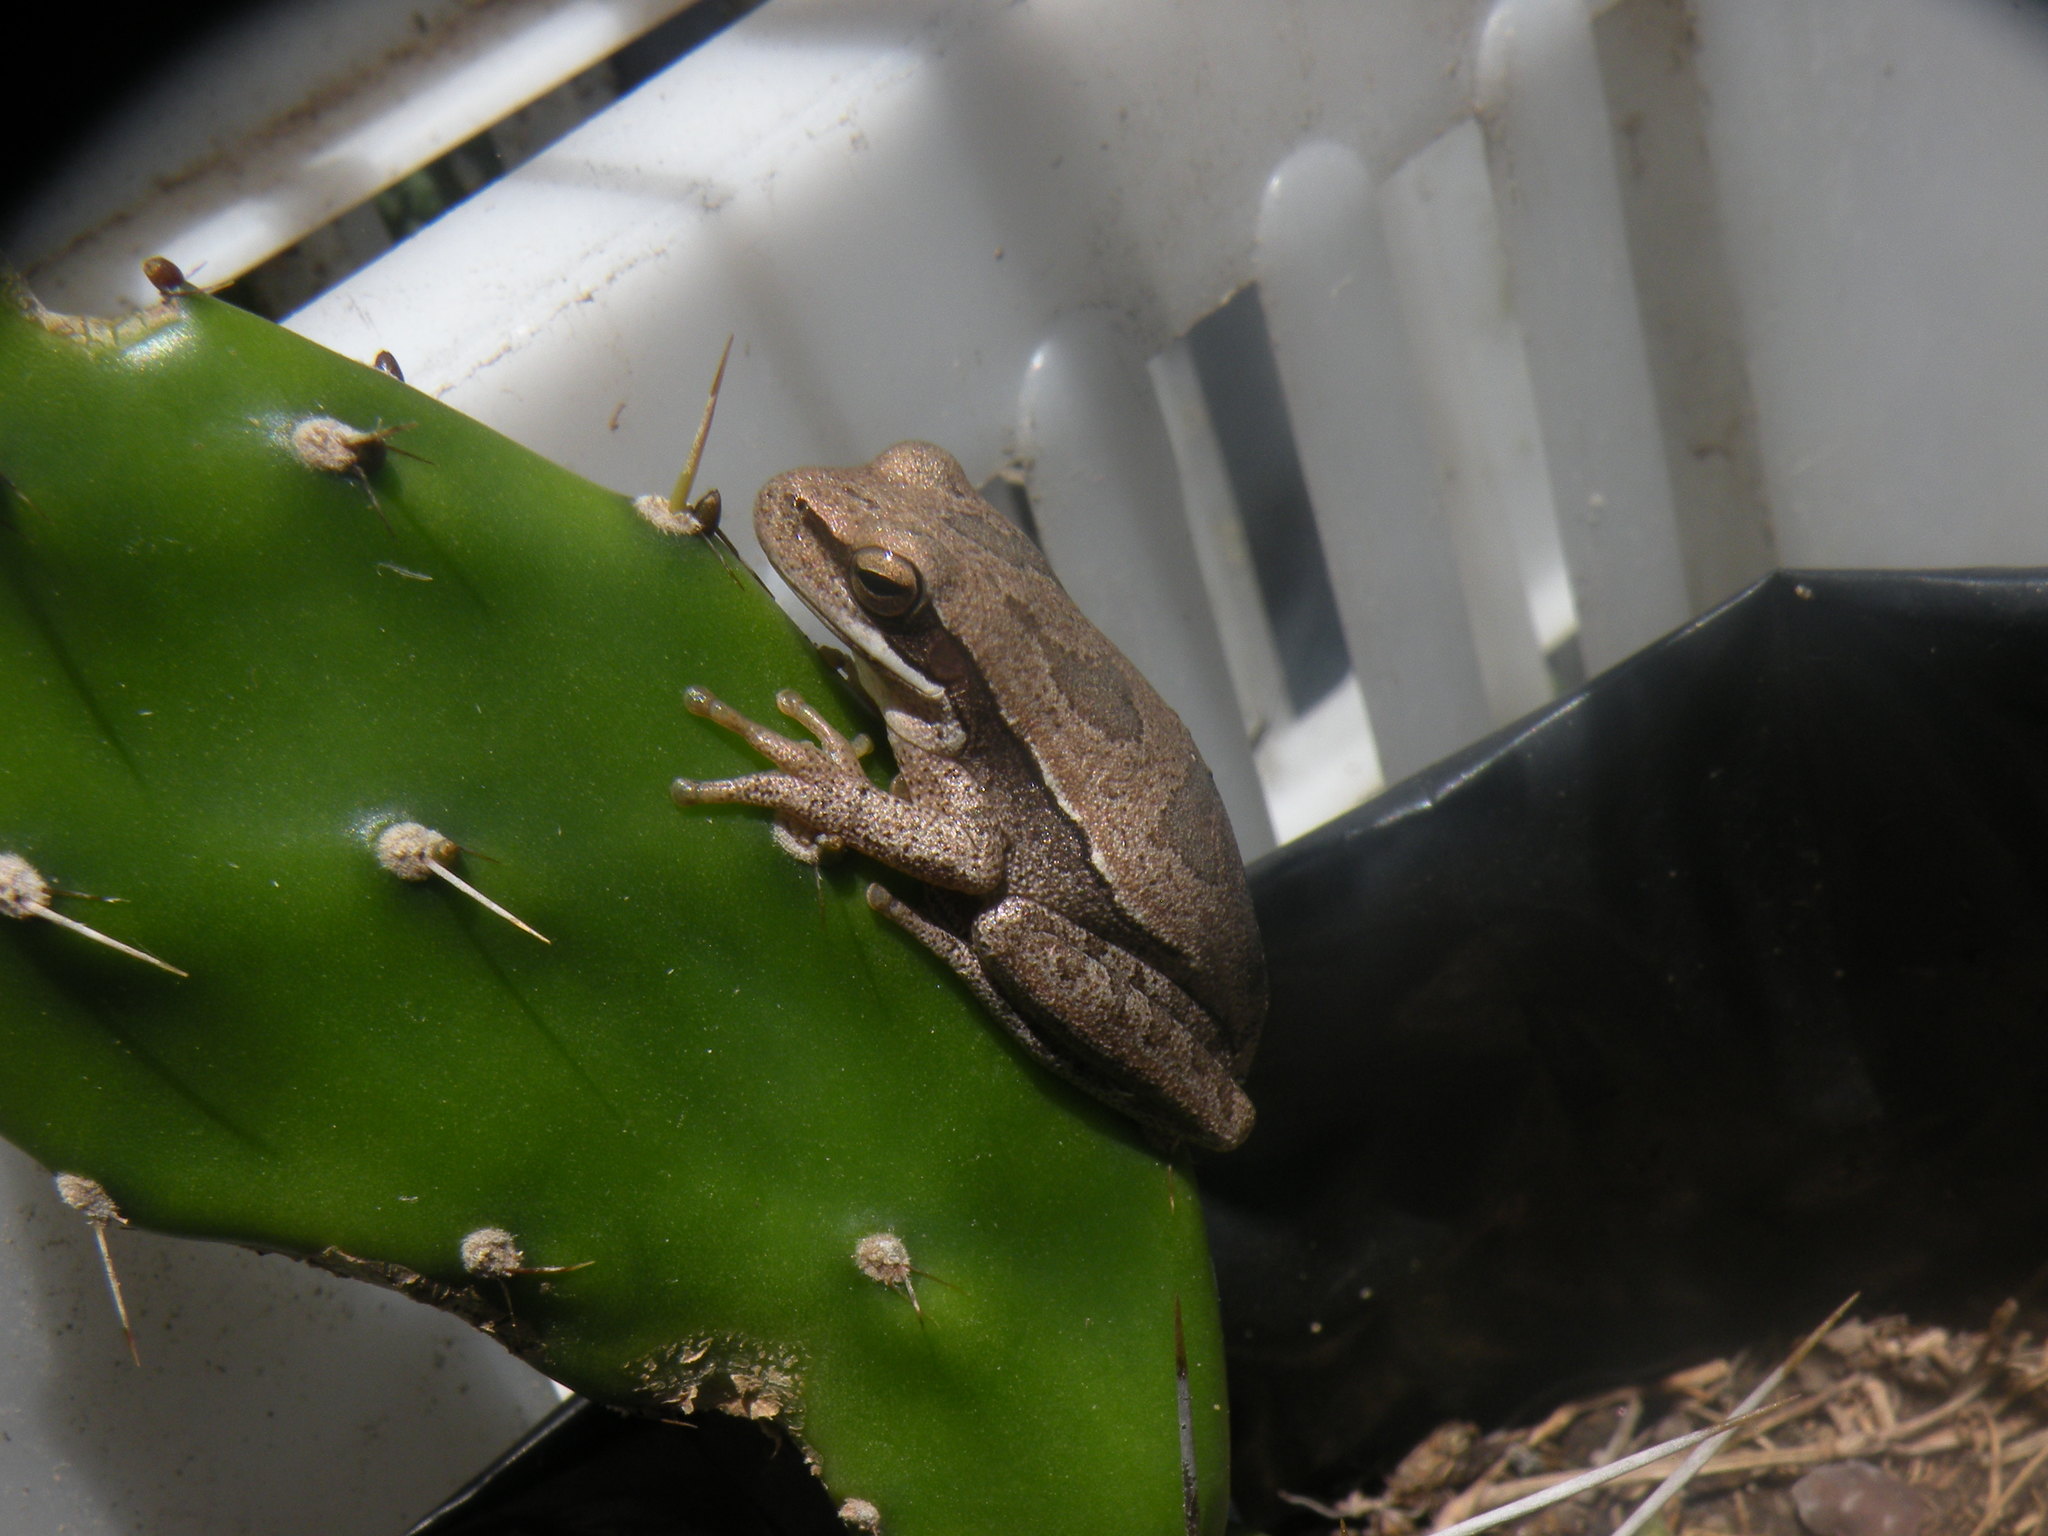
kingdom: Animalia
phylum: Chordata
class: Amphibia
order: Anura
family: Hylidae
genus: Boana
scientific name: Boana pulchella
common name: Montevideo treefrog
